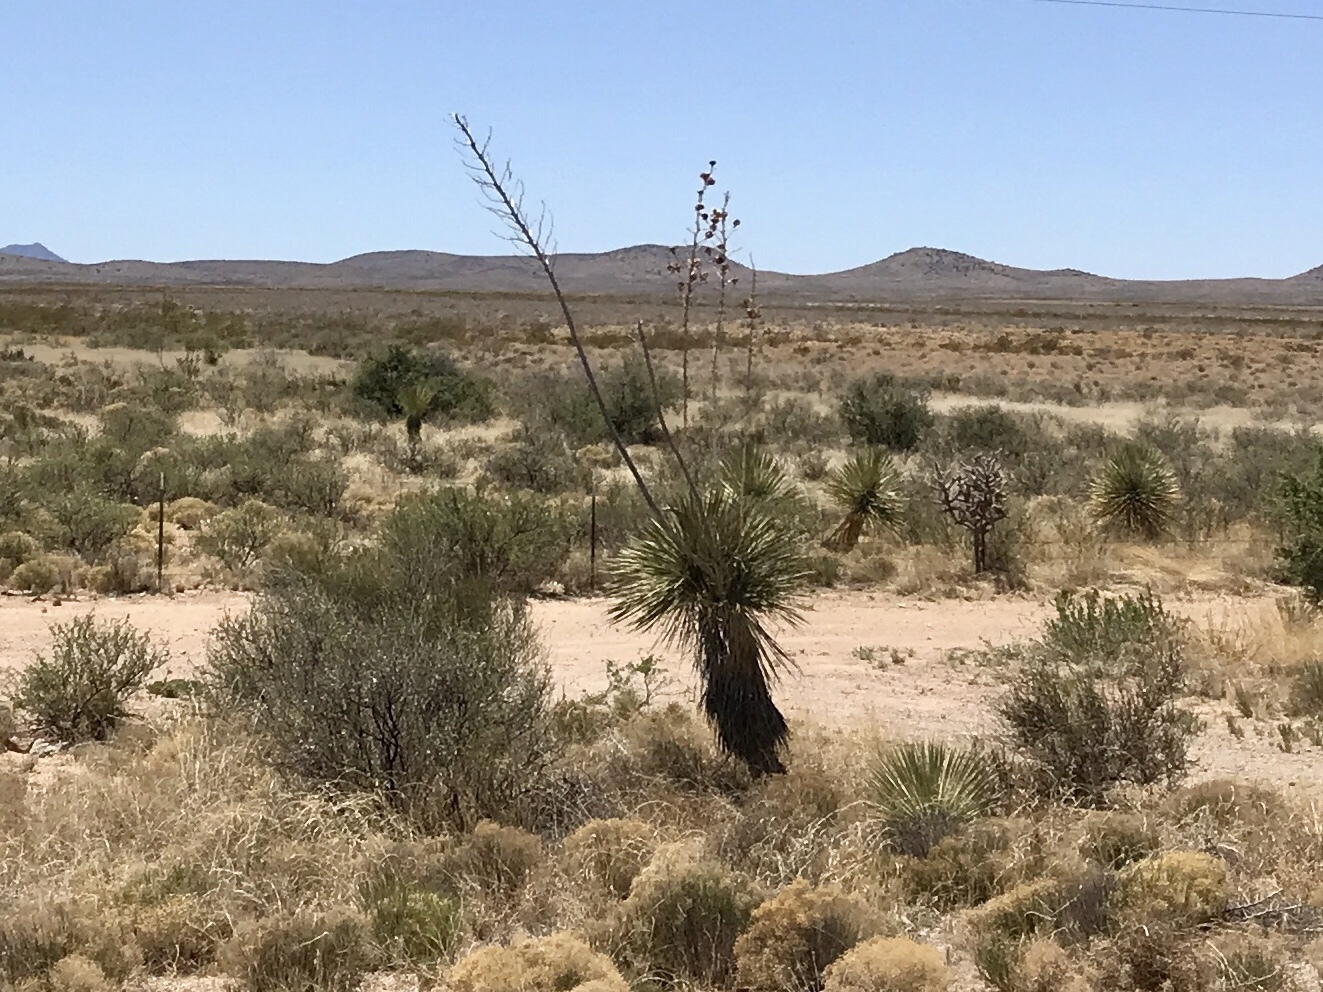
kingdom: Plantae
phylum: Tracheophyta
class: Liliopsida
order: Asparagales
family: Asparagaceae
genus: Yucca
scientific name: Yucca elata
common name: Palmella
